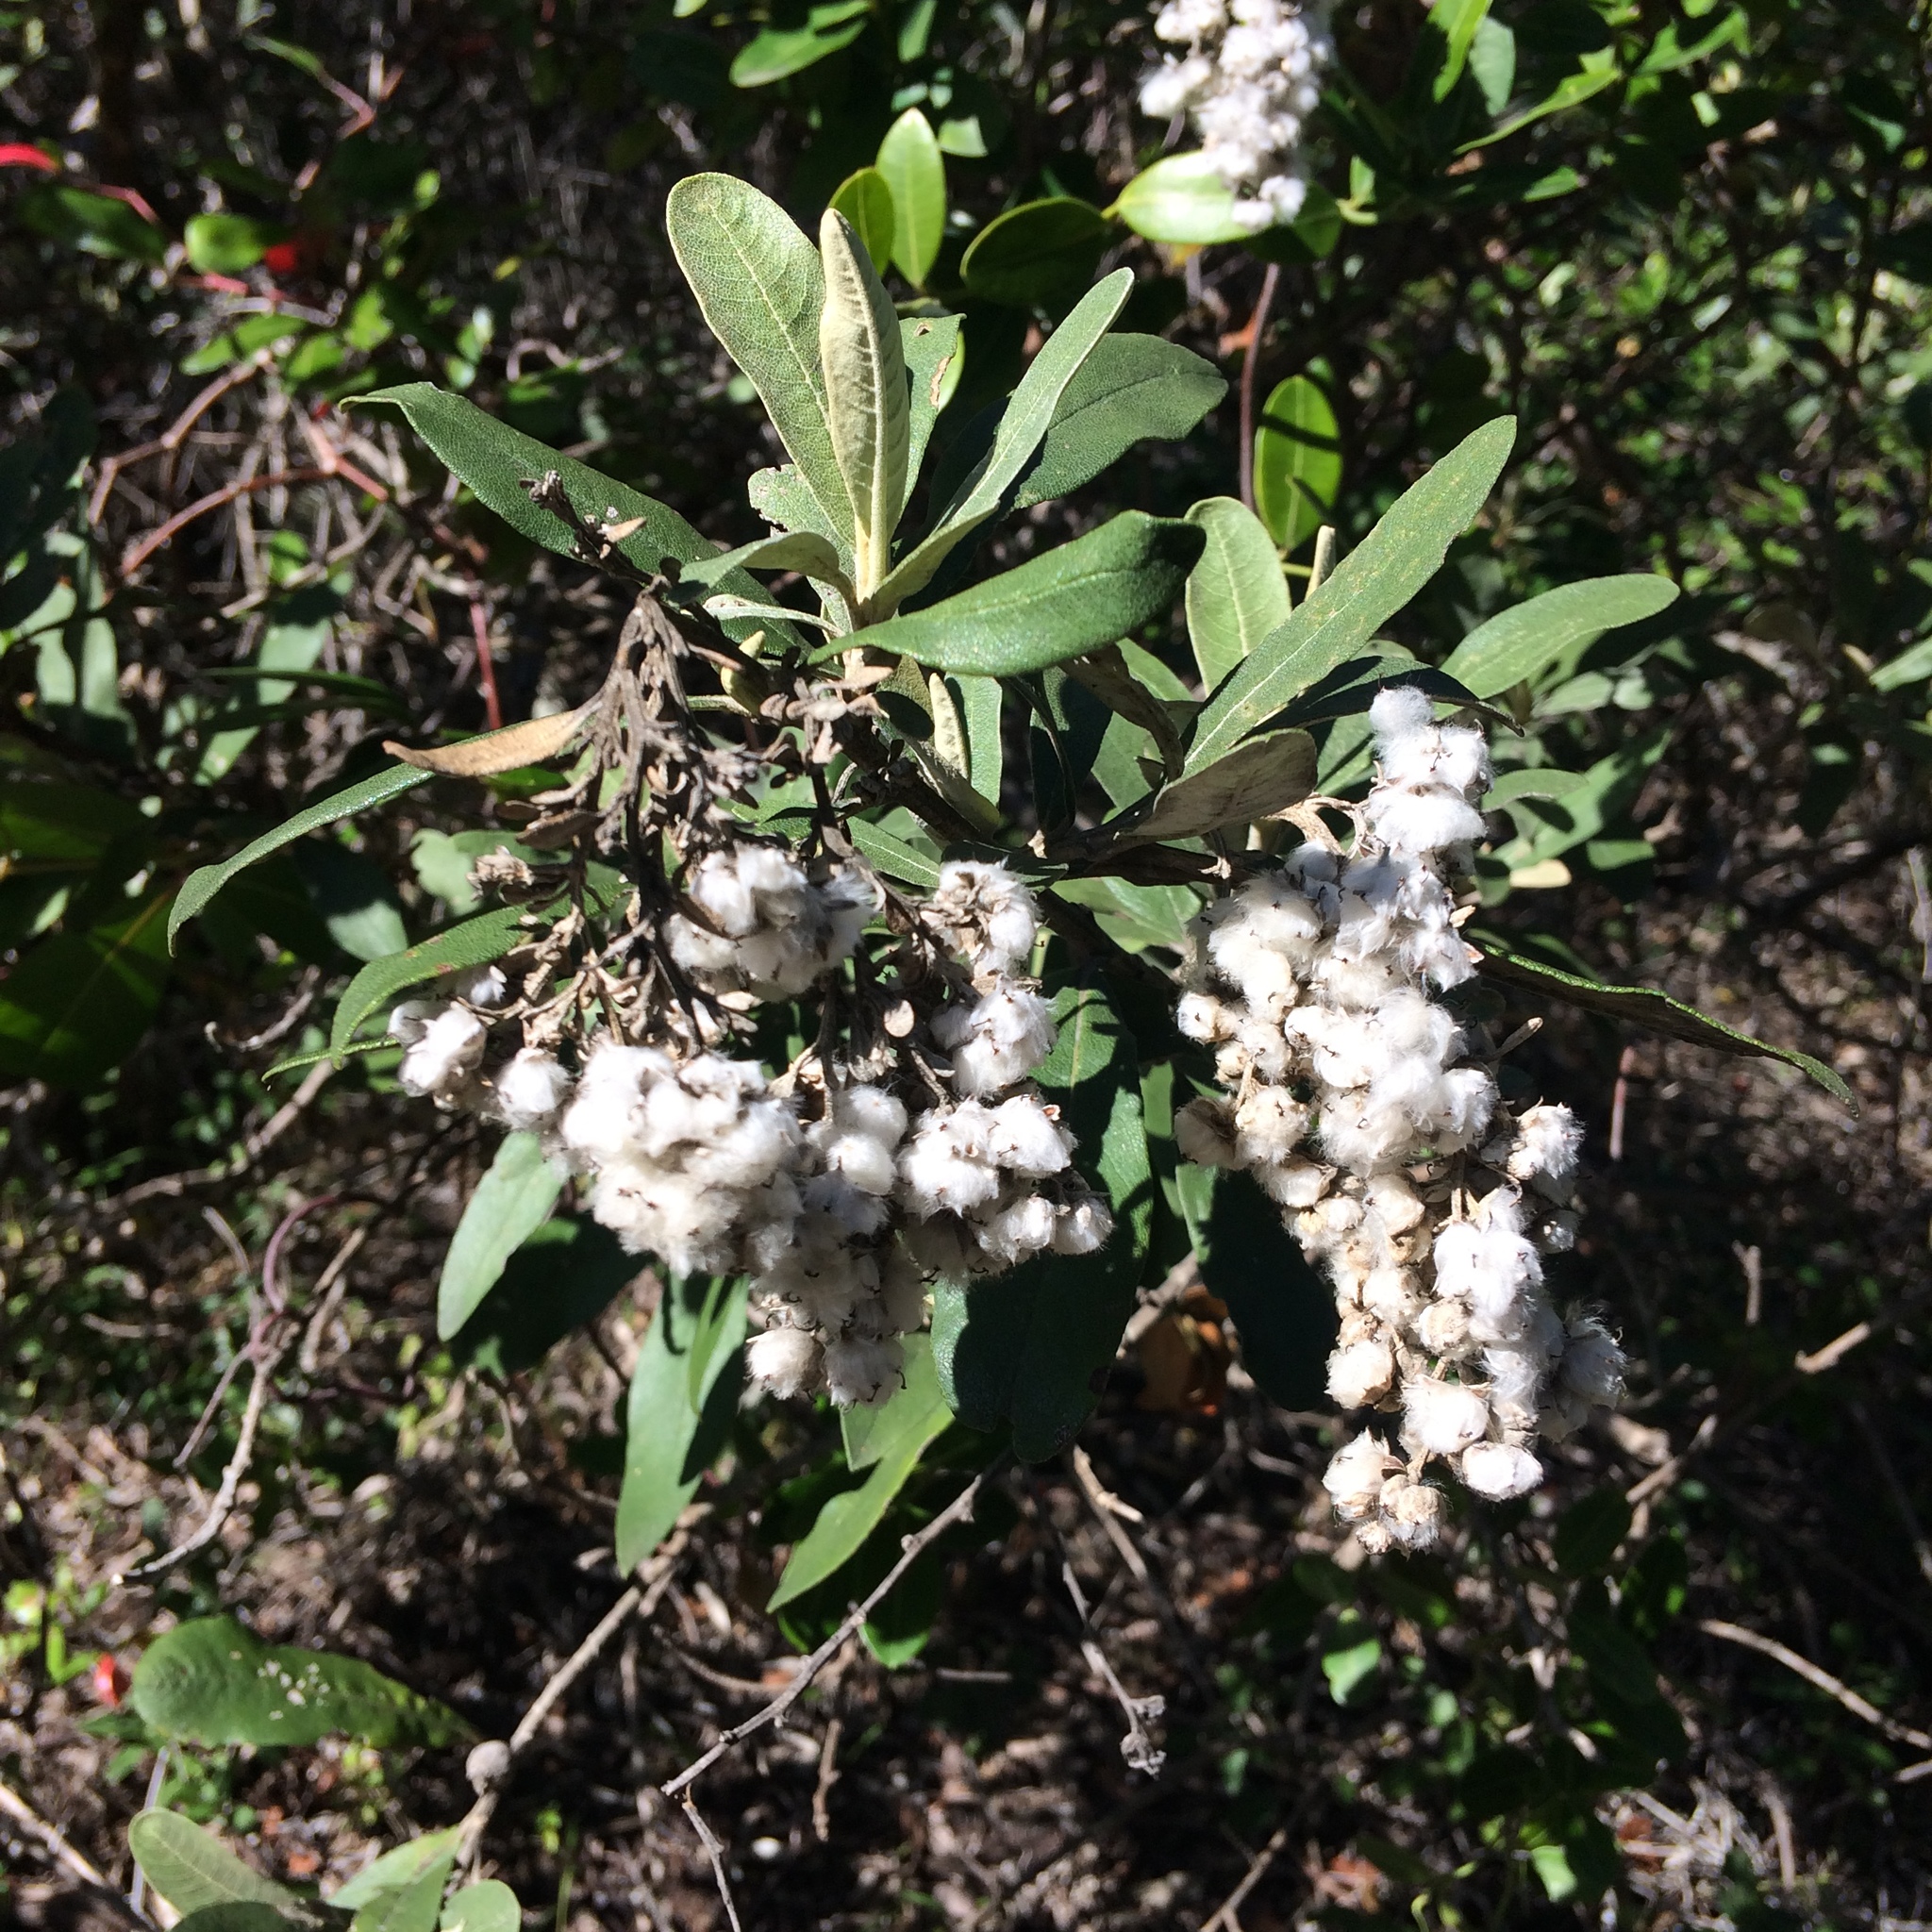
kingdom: Plantae
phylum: Tracheophyta
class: Magnoliopsida
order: Asterales
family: Asteraceae
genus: Tarchonanthus
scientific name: Tarchonanthus littoralis
